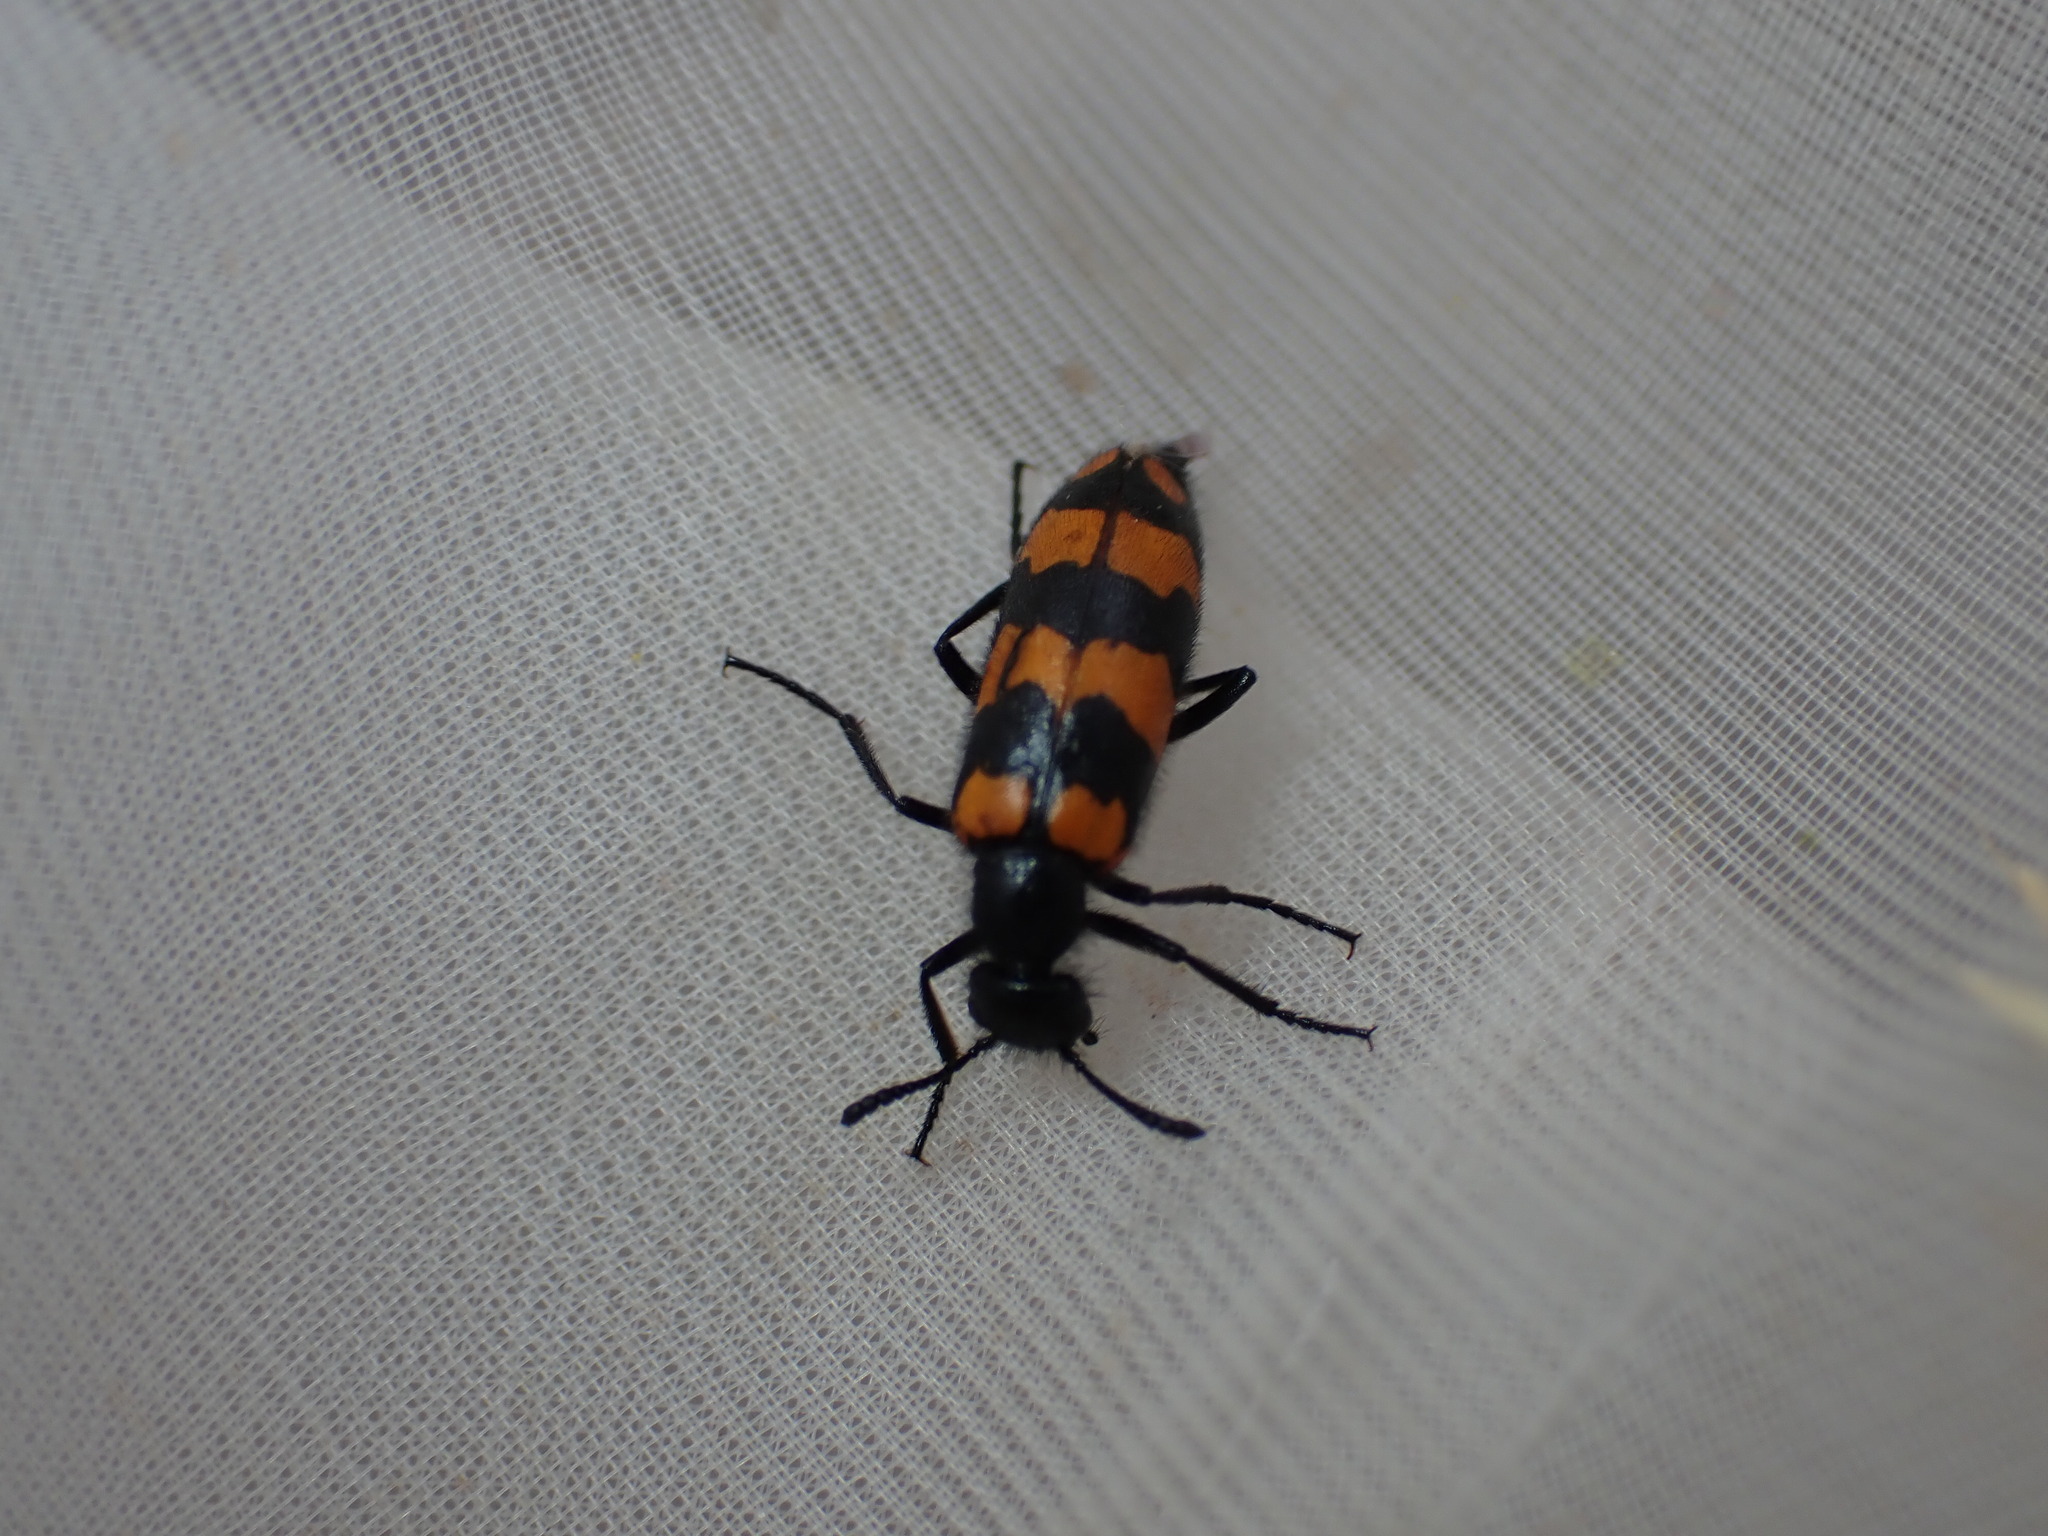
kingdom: Animalia
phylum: Arthropoda
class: Insecta
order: Coleoptera
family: Meloidae
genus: Mylabris
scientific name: Mylabris connata
